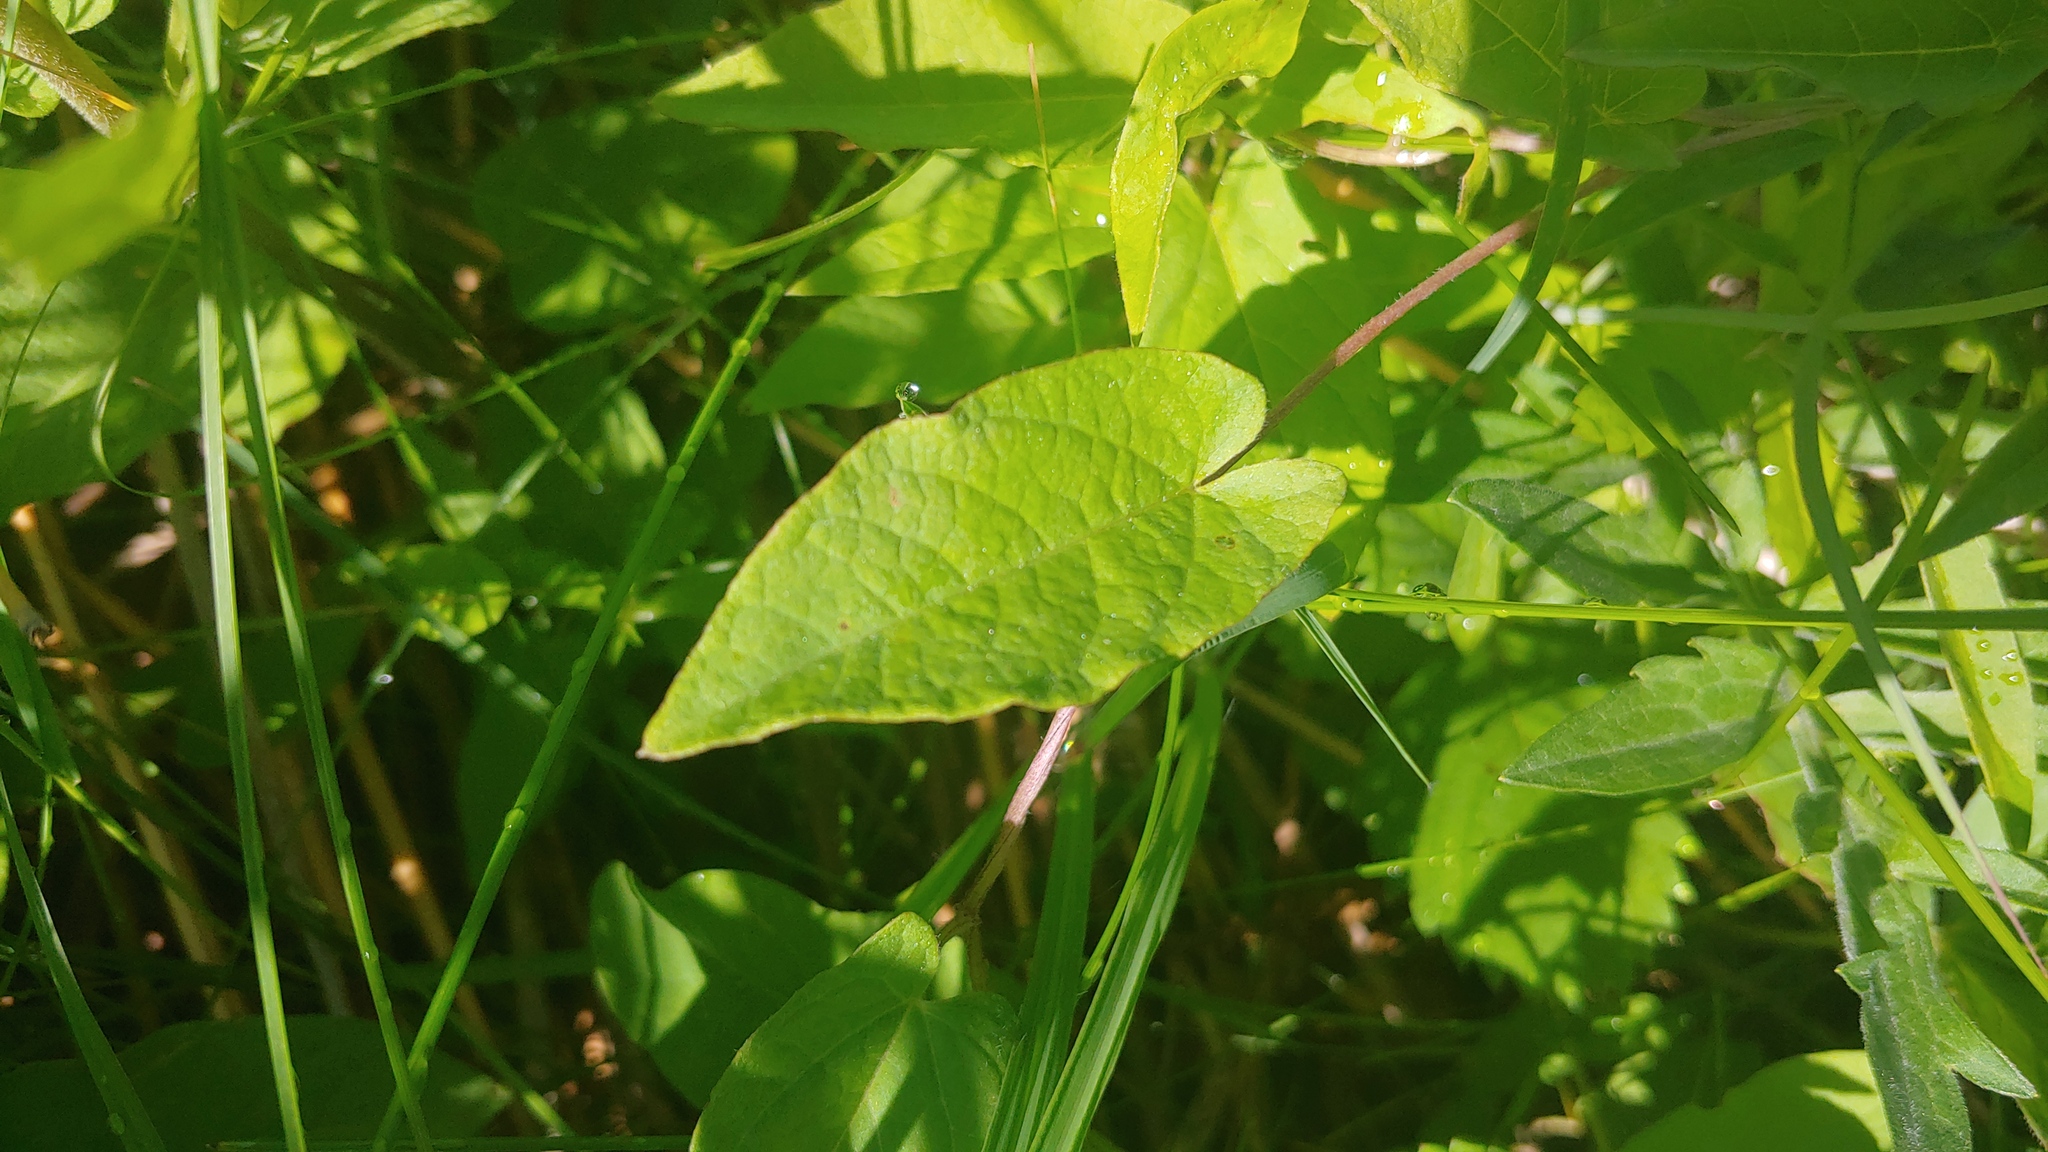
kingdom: Plantae
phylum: Tracheophyta
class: Magnoliopsida
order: Solanales
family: Convolvulaceae
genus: Calystegia
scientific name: Calystegia spithamaea
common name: Dwarf bindweed
